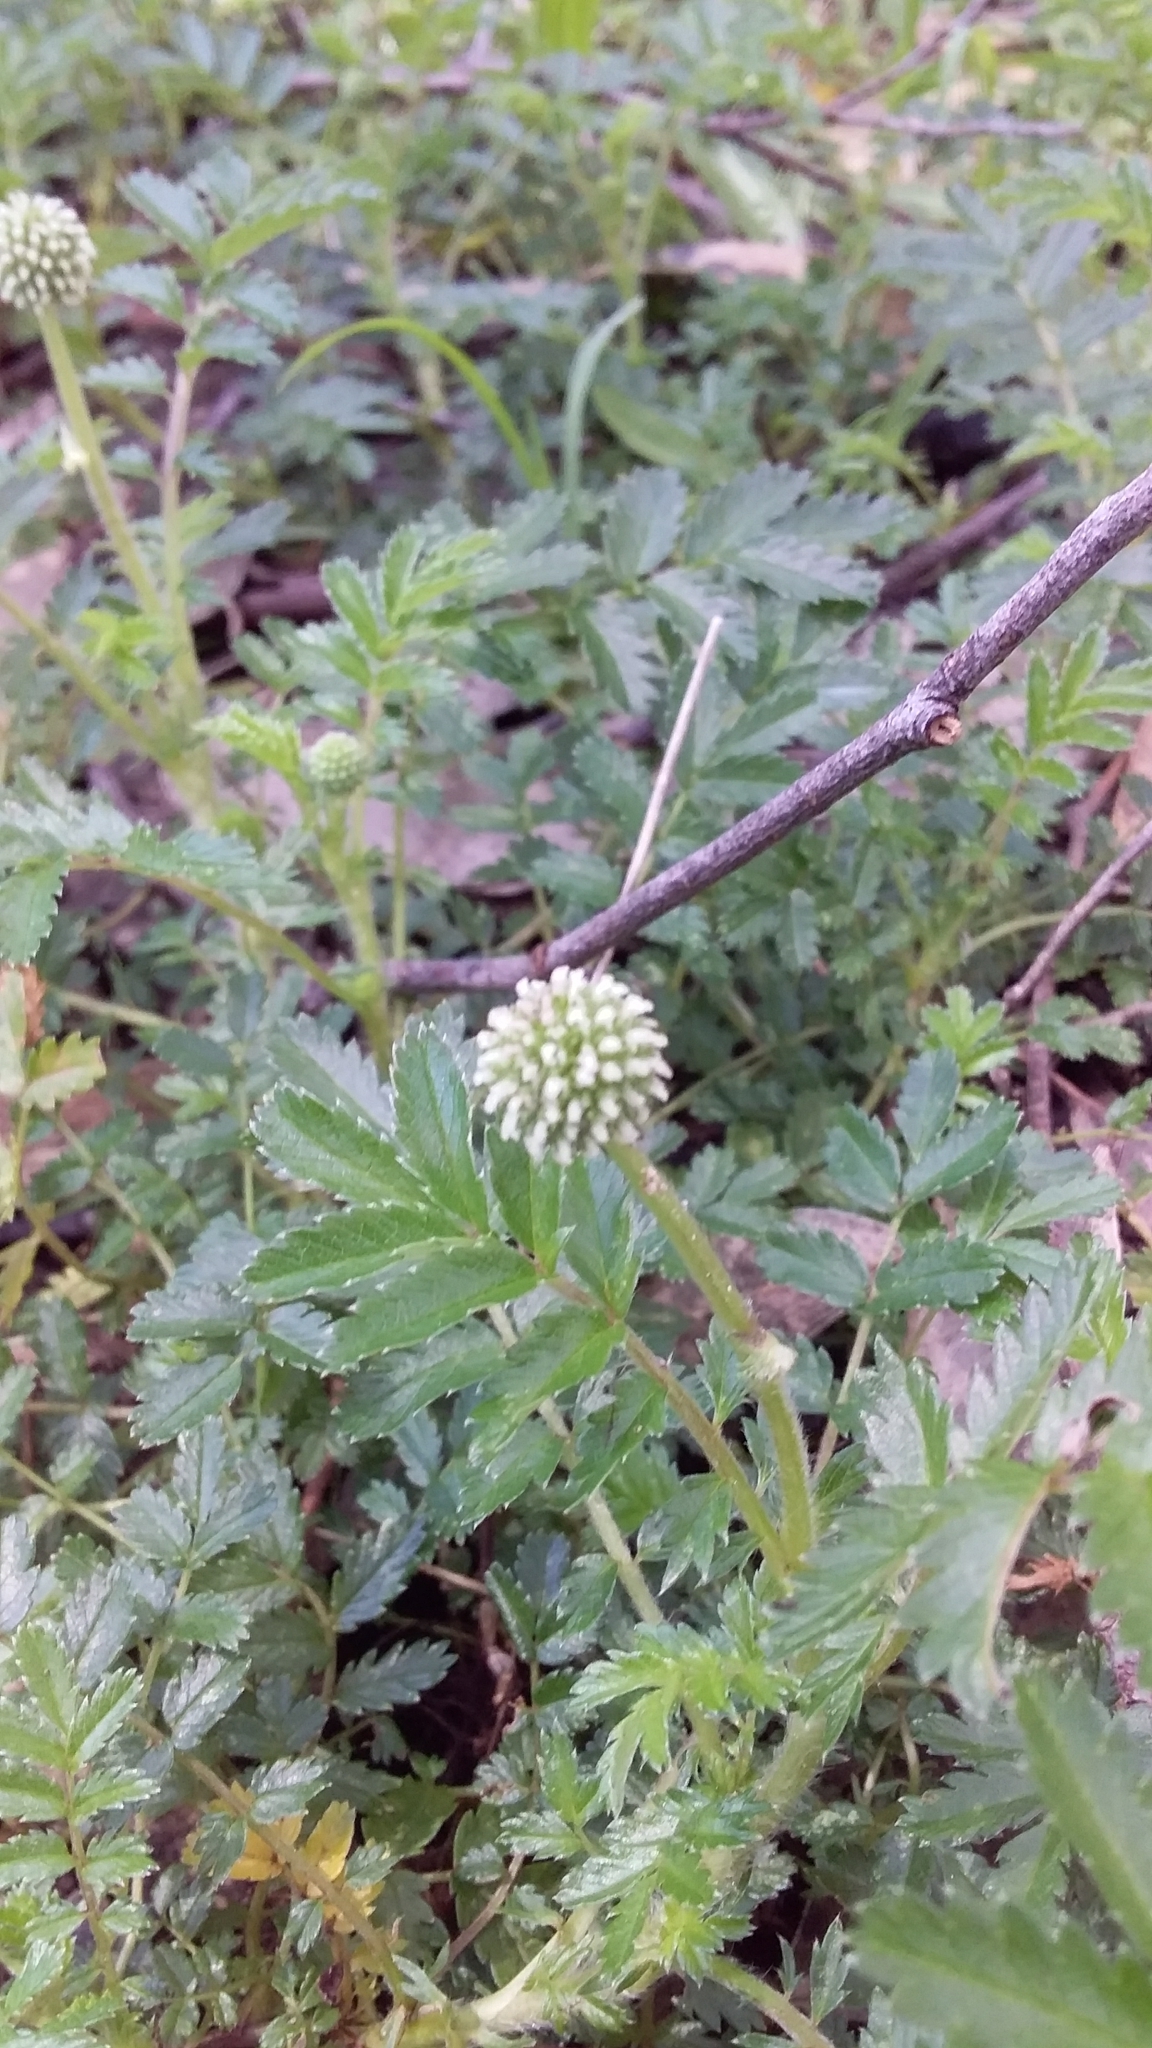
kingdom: Plantae
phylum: Tracheophyta
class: Magnoliopsida
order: Rosales
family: Rosaceae
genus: Acaena
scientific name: Acaena novae-zelandiae
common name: Pirri-pirri-bur
